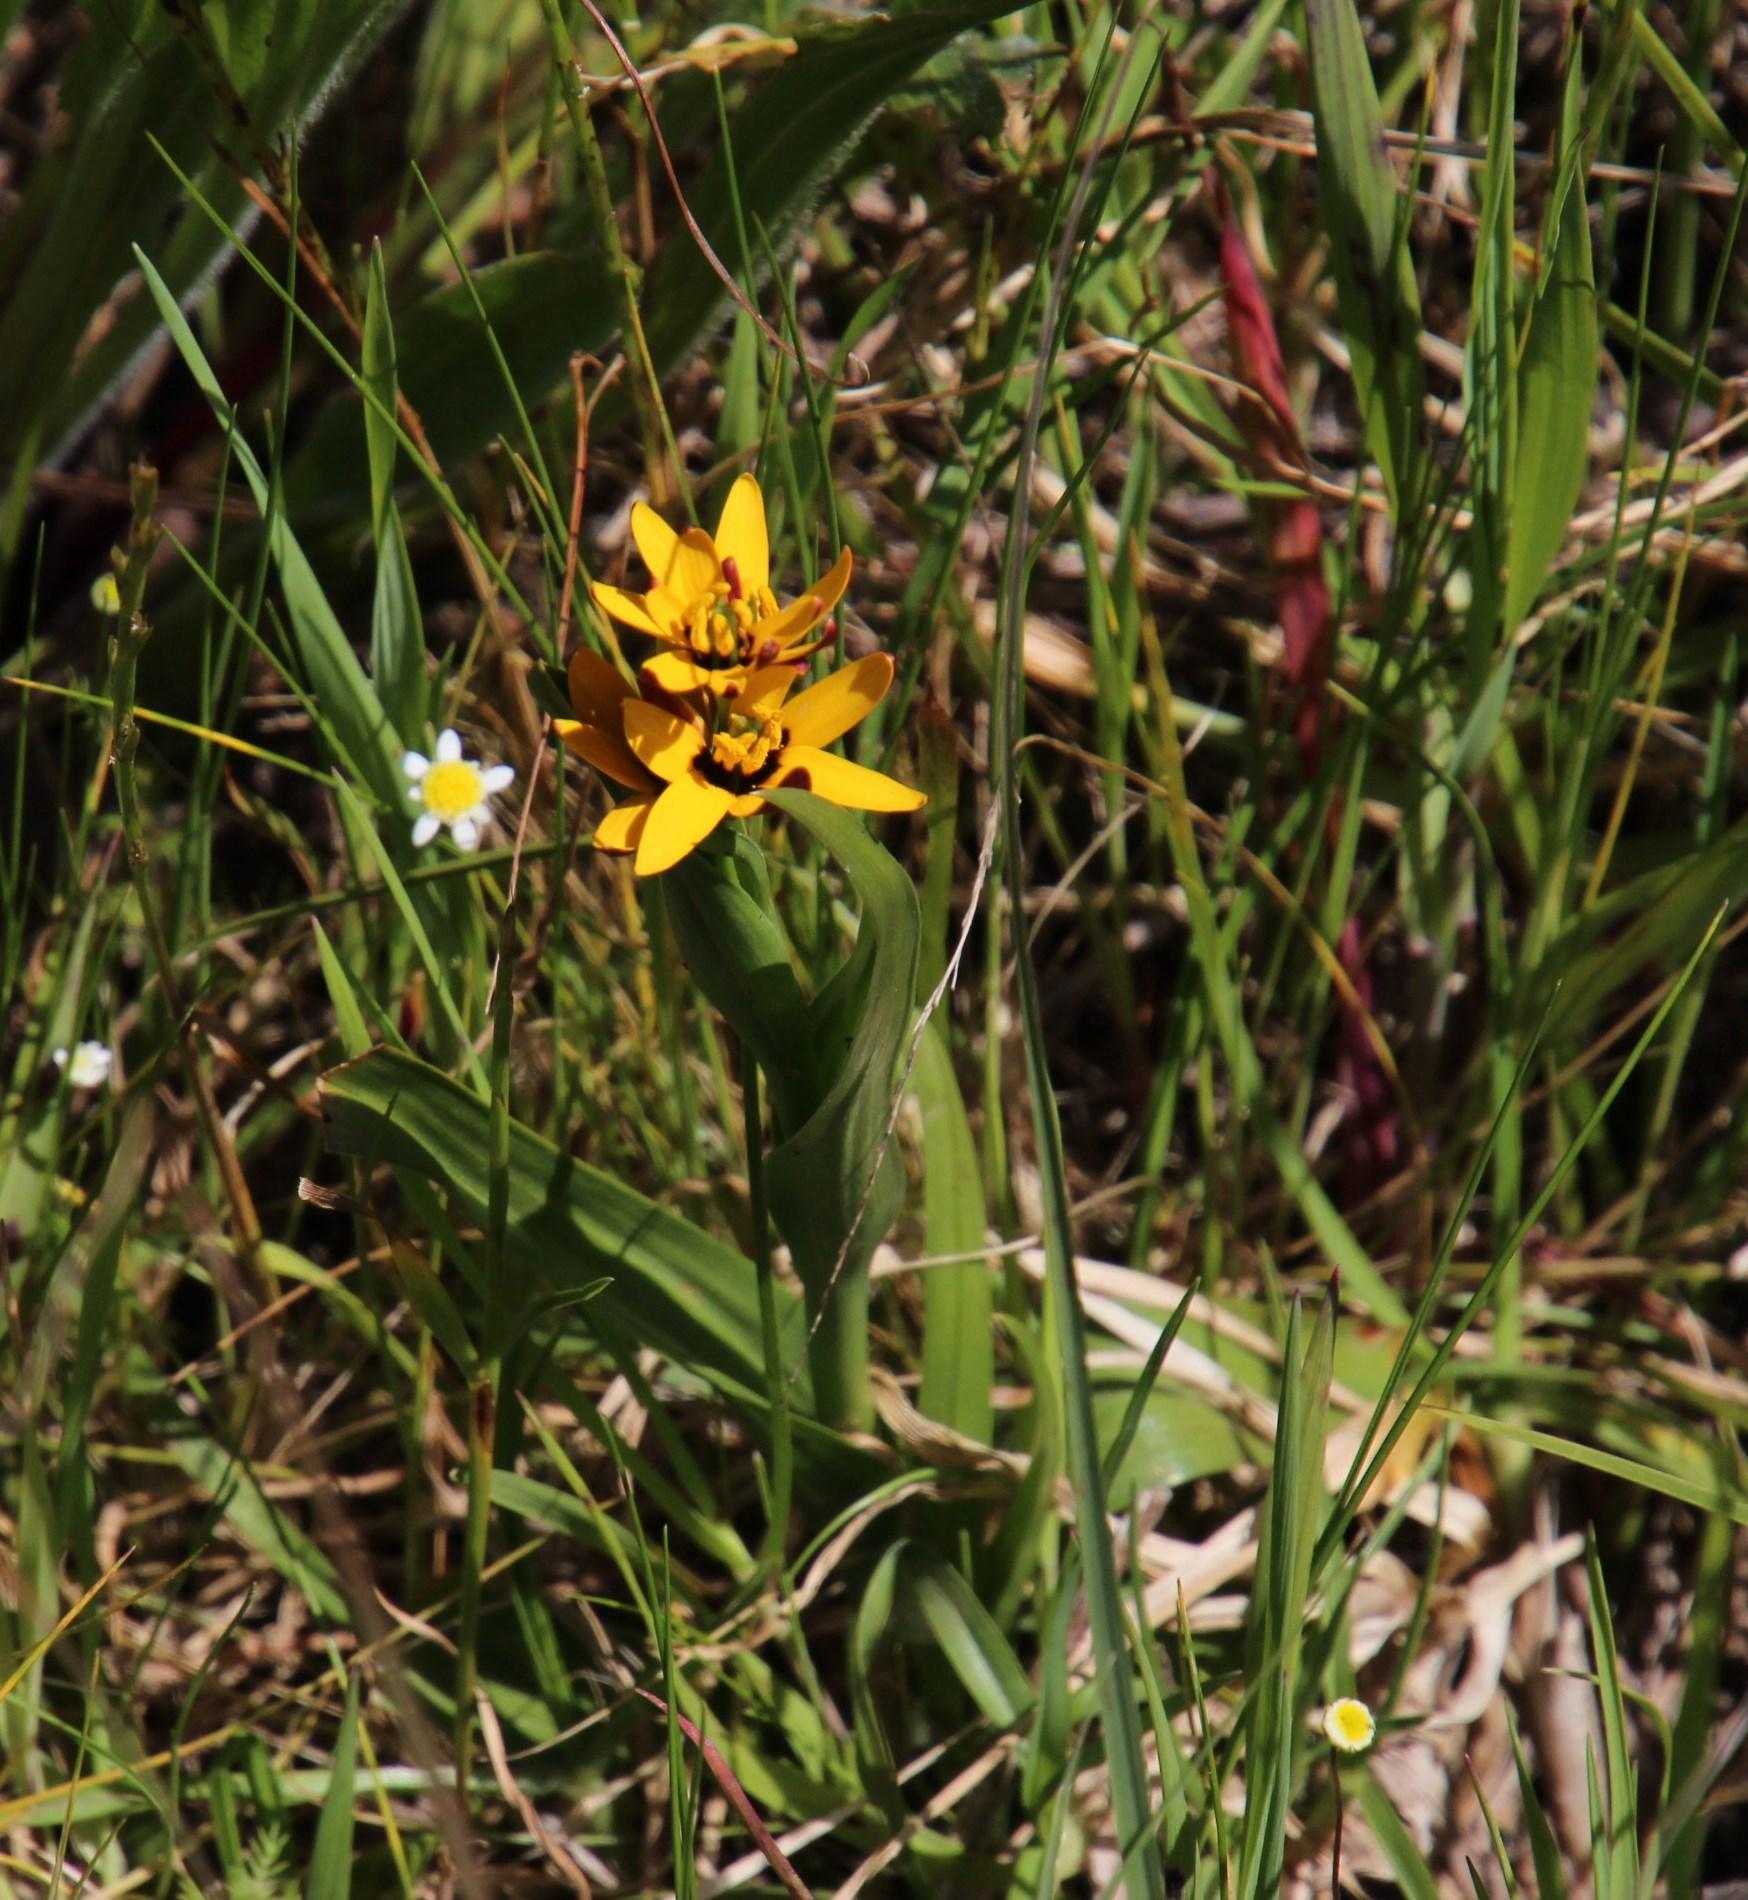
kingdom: Plantae
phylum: Tracheophyta
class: Liliopsida
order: Liliales
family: Colchicaceae
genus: Baeometra
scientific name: Baeometra uniflora
